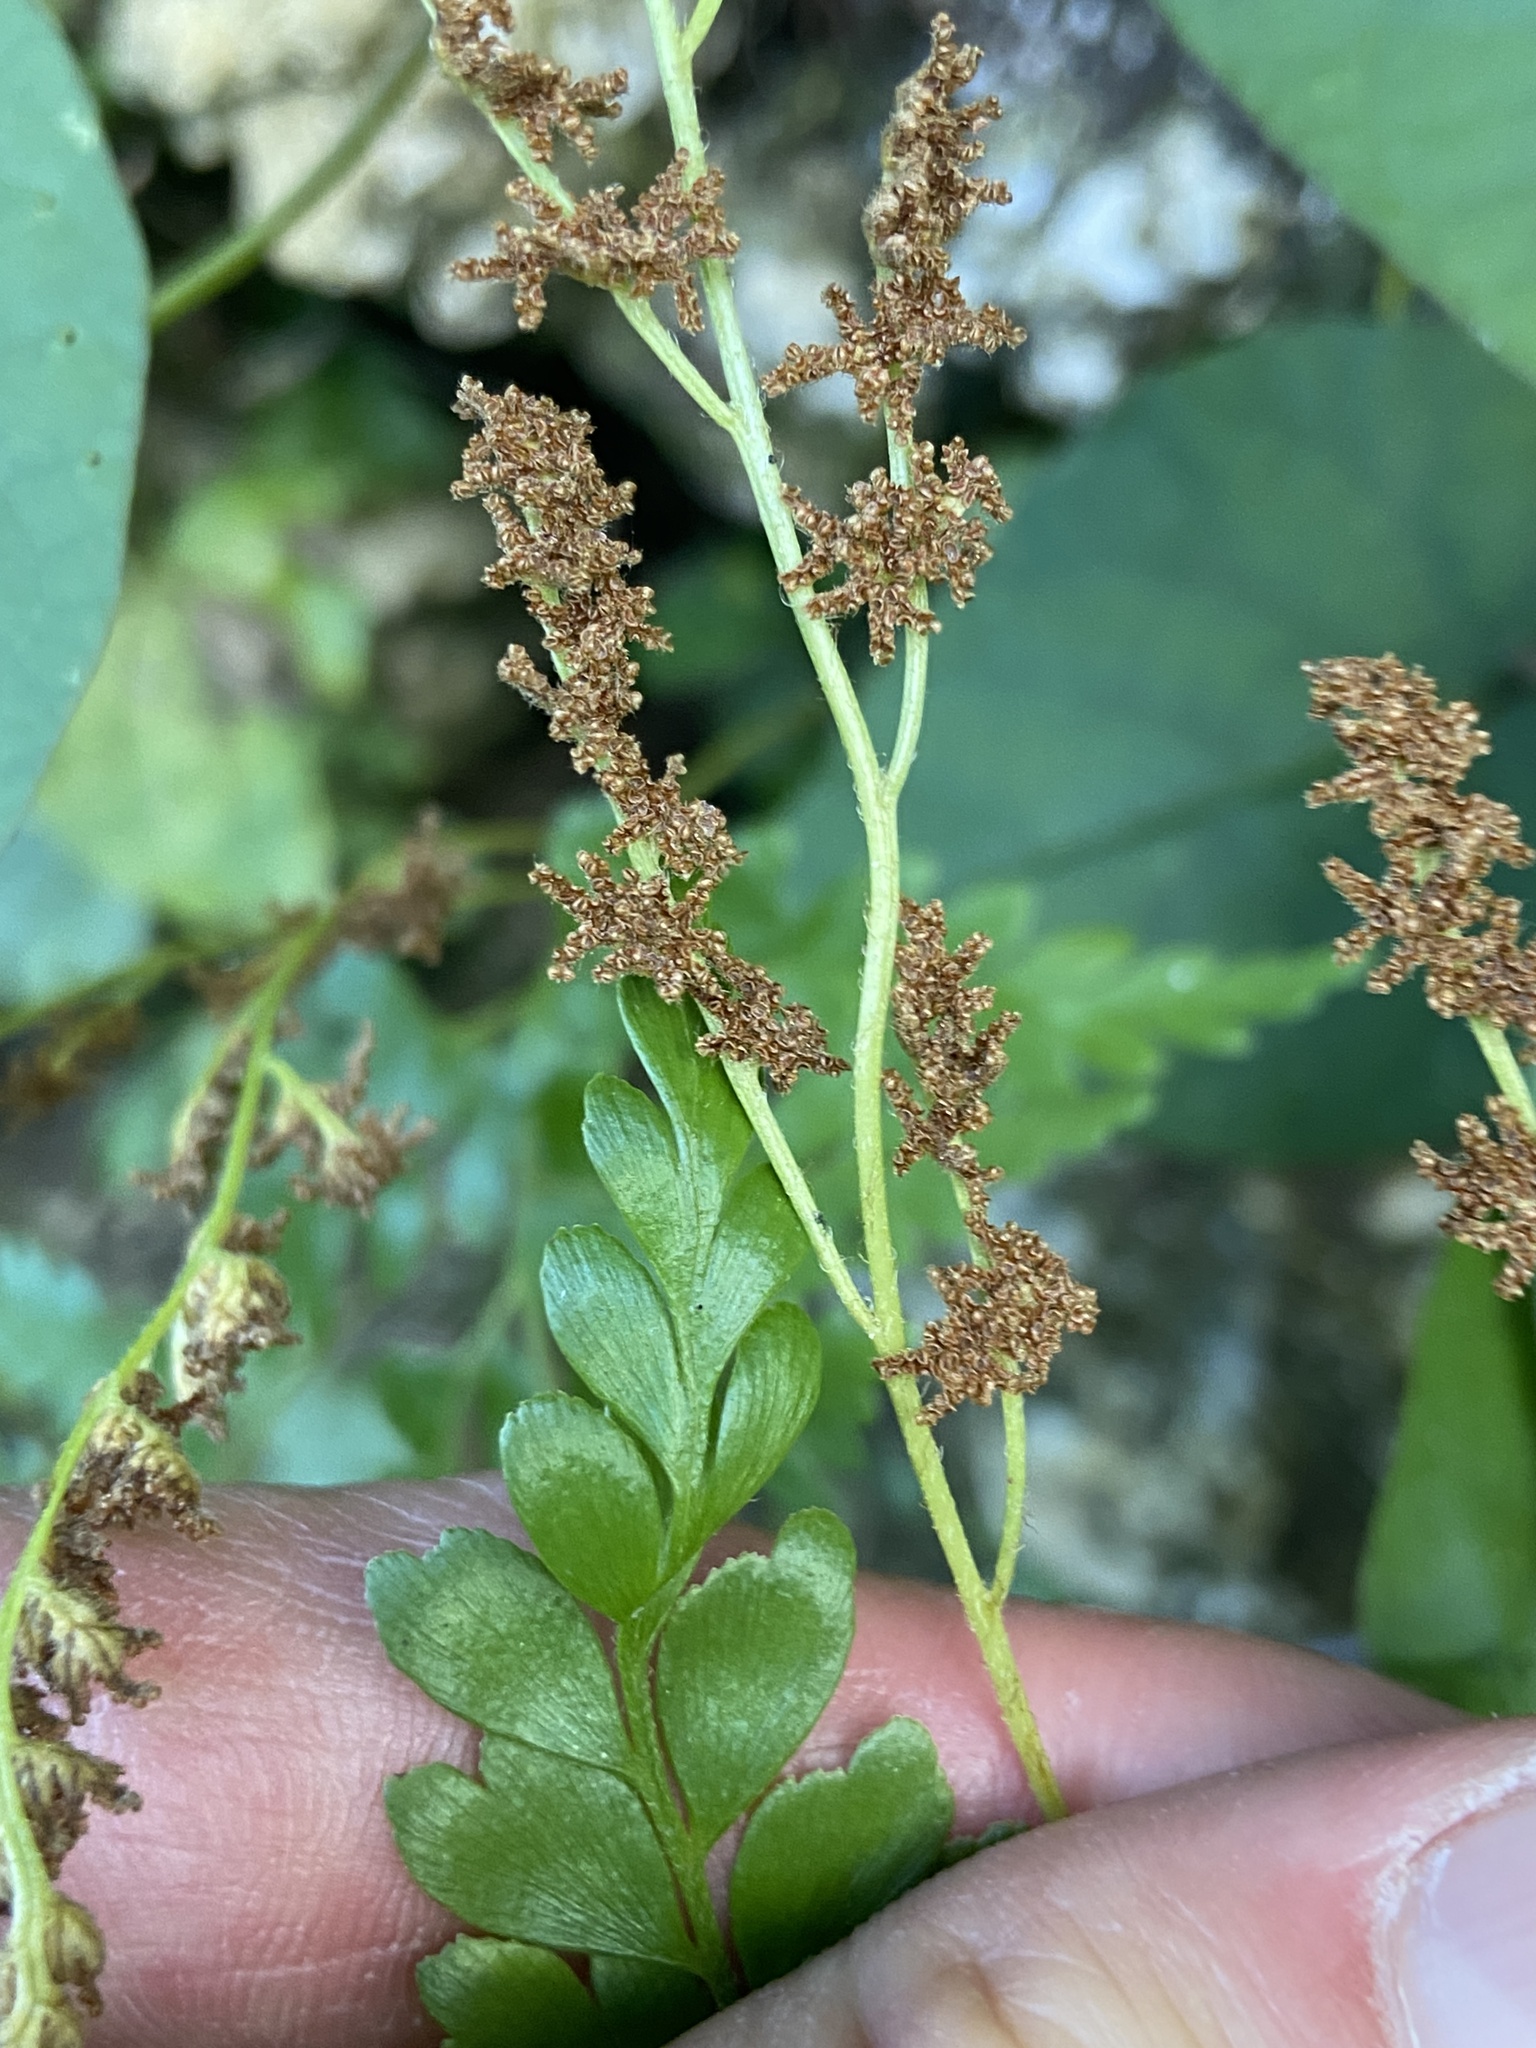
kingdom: Plantae
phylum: Tracheophyta
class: Polypodiopsida
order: Schizaeales
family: Anemiaceae
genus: Anemia
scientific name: Anemia adiantifolia
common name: Pine fern
